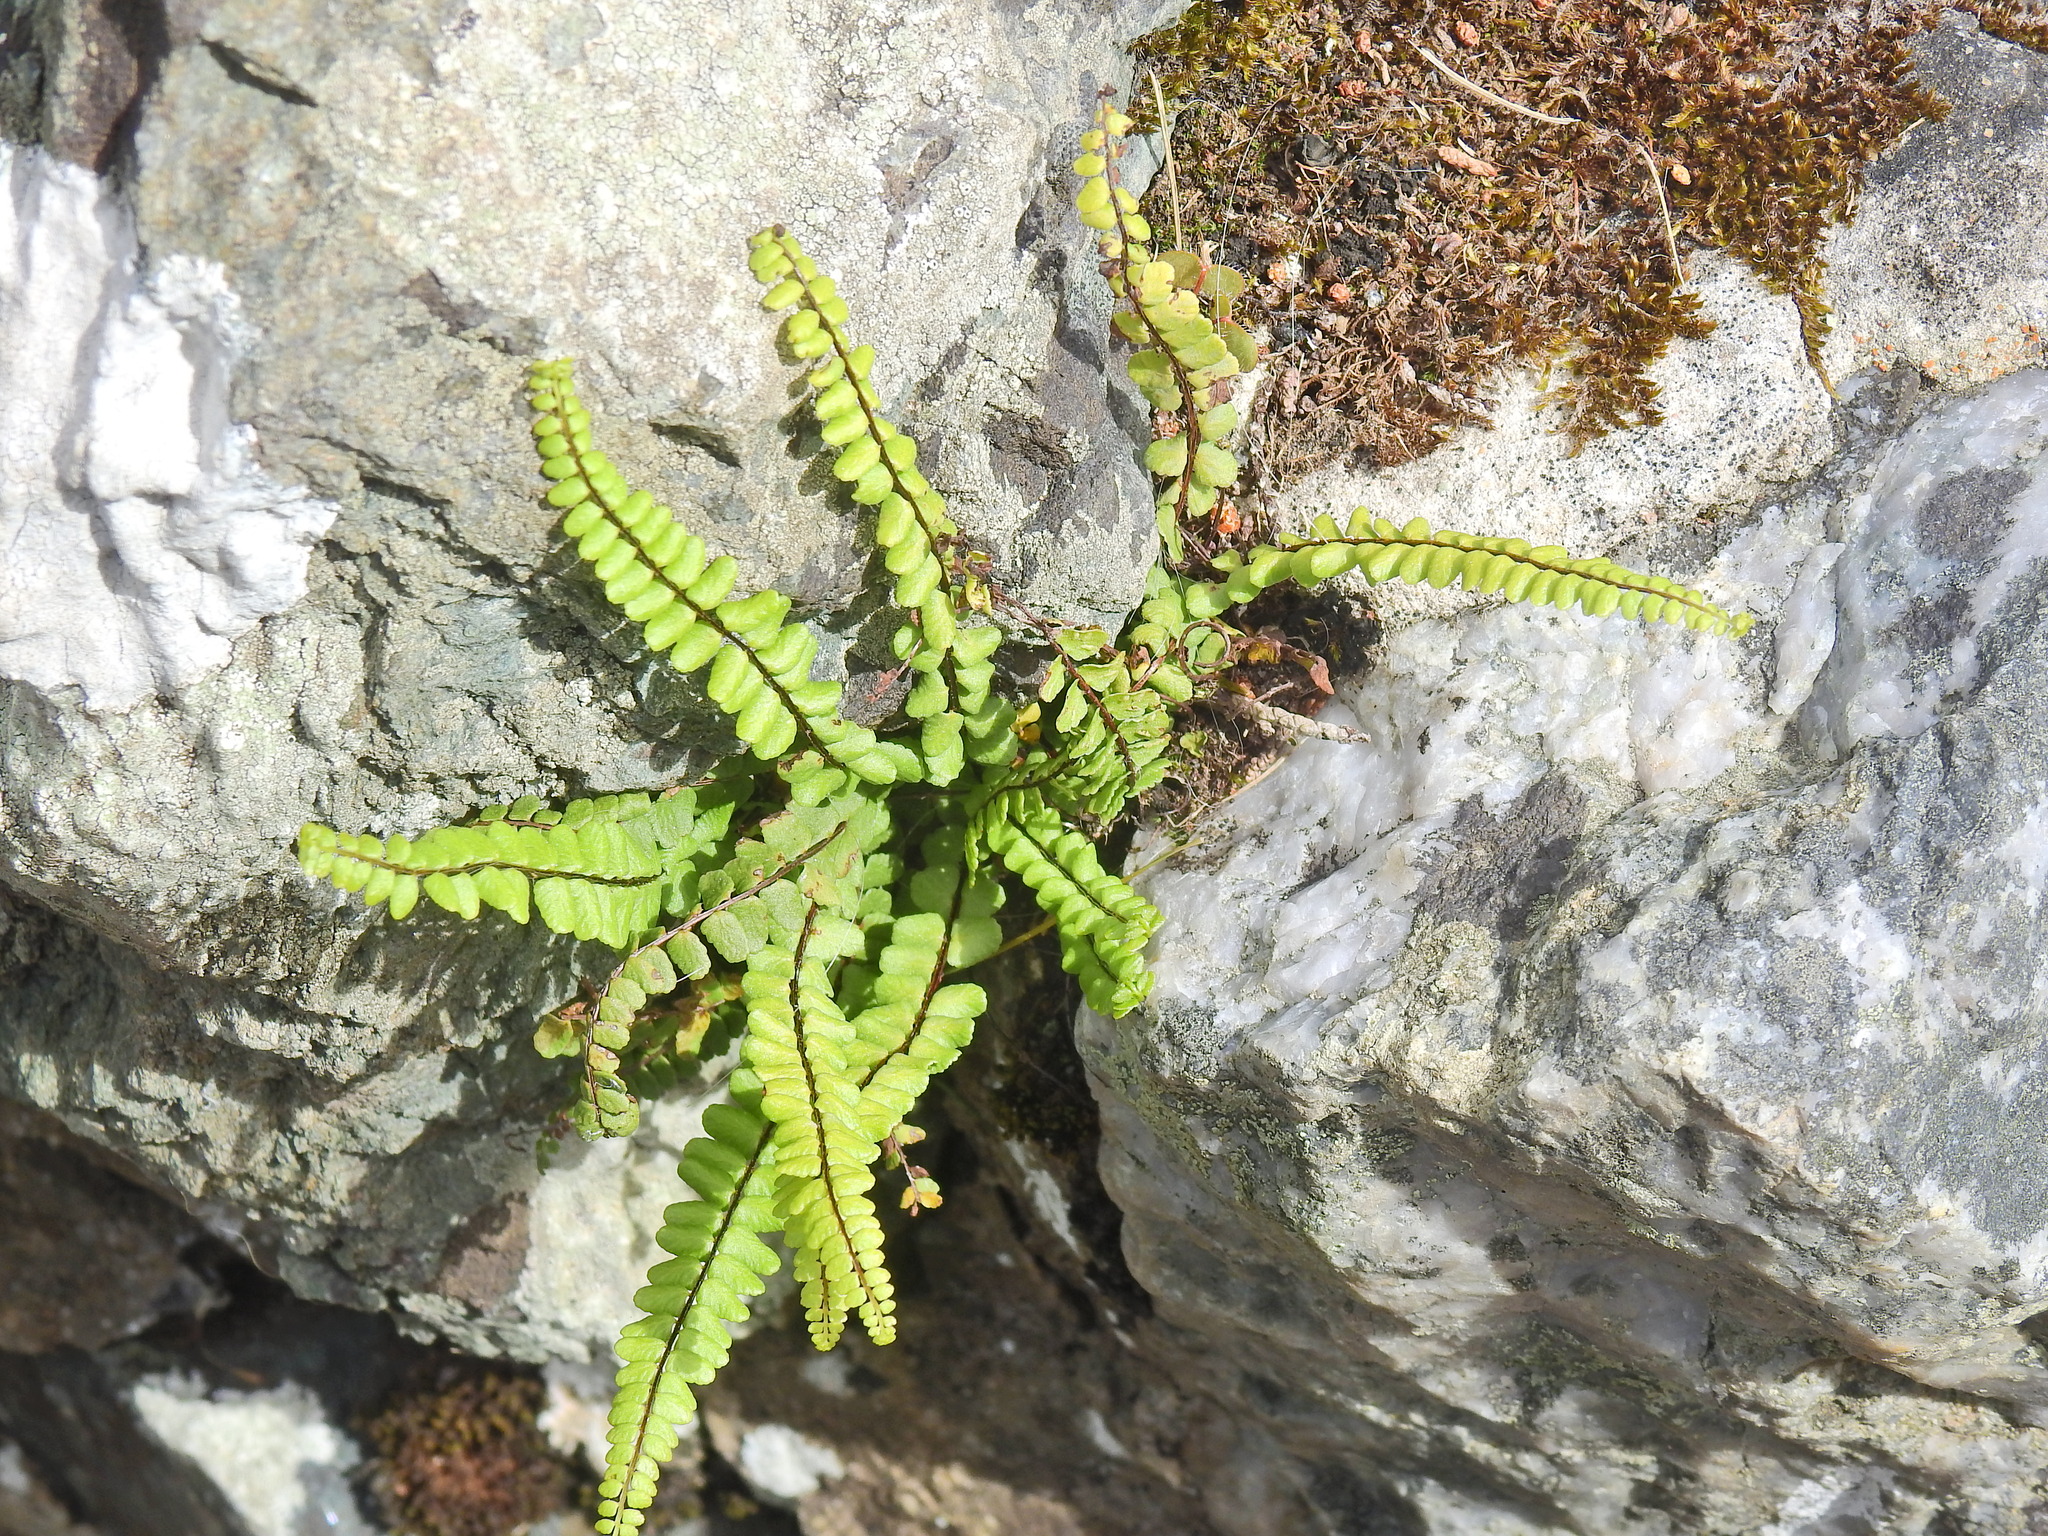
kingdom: Plantae
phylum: Tracheophyta
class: Polypodiopsida
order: Polypodiales
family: Aspleniaceae
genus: Asplenium
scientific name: Asplenium trichomanes
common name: Maidenhair spleenwort
